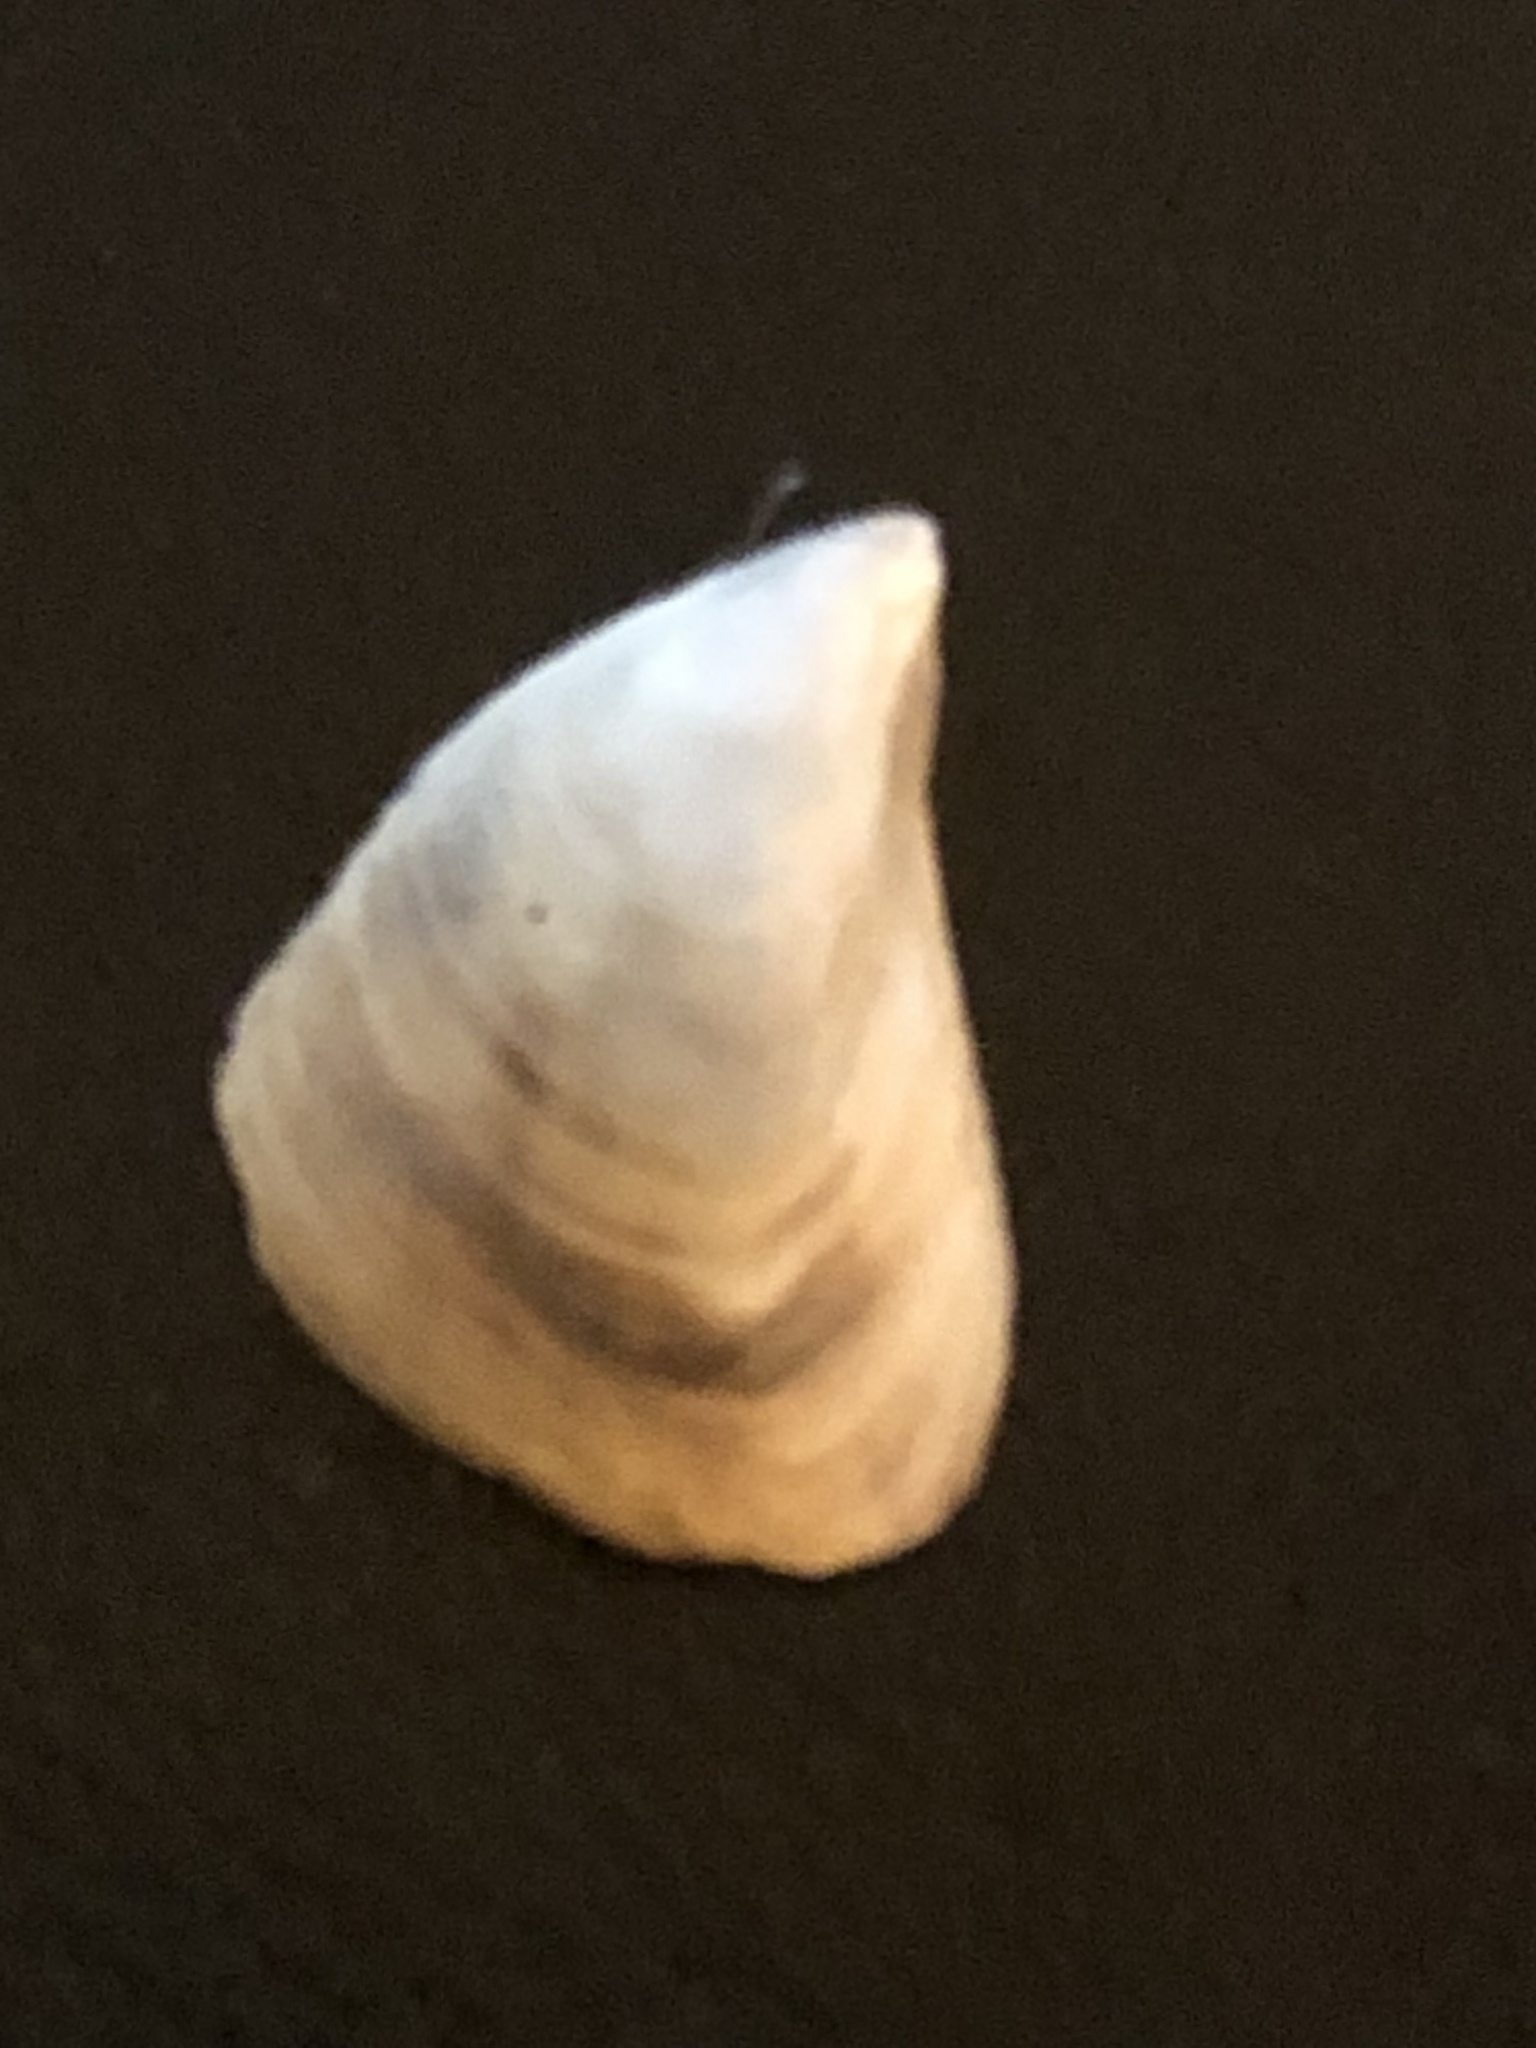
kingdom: Animalia
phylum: Mollusca
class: Bivalvia
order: Myida
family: Dreissenidae
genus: Dreissena
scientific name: Dreissena bugensis
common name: Quagga mussel
